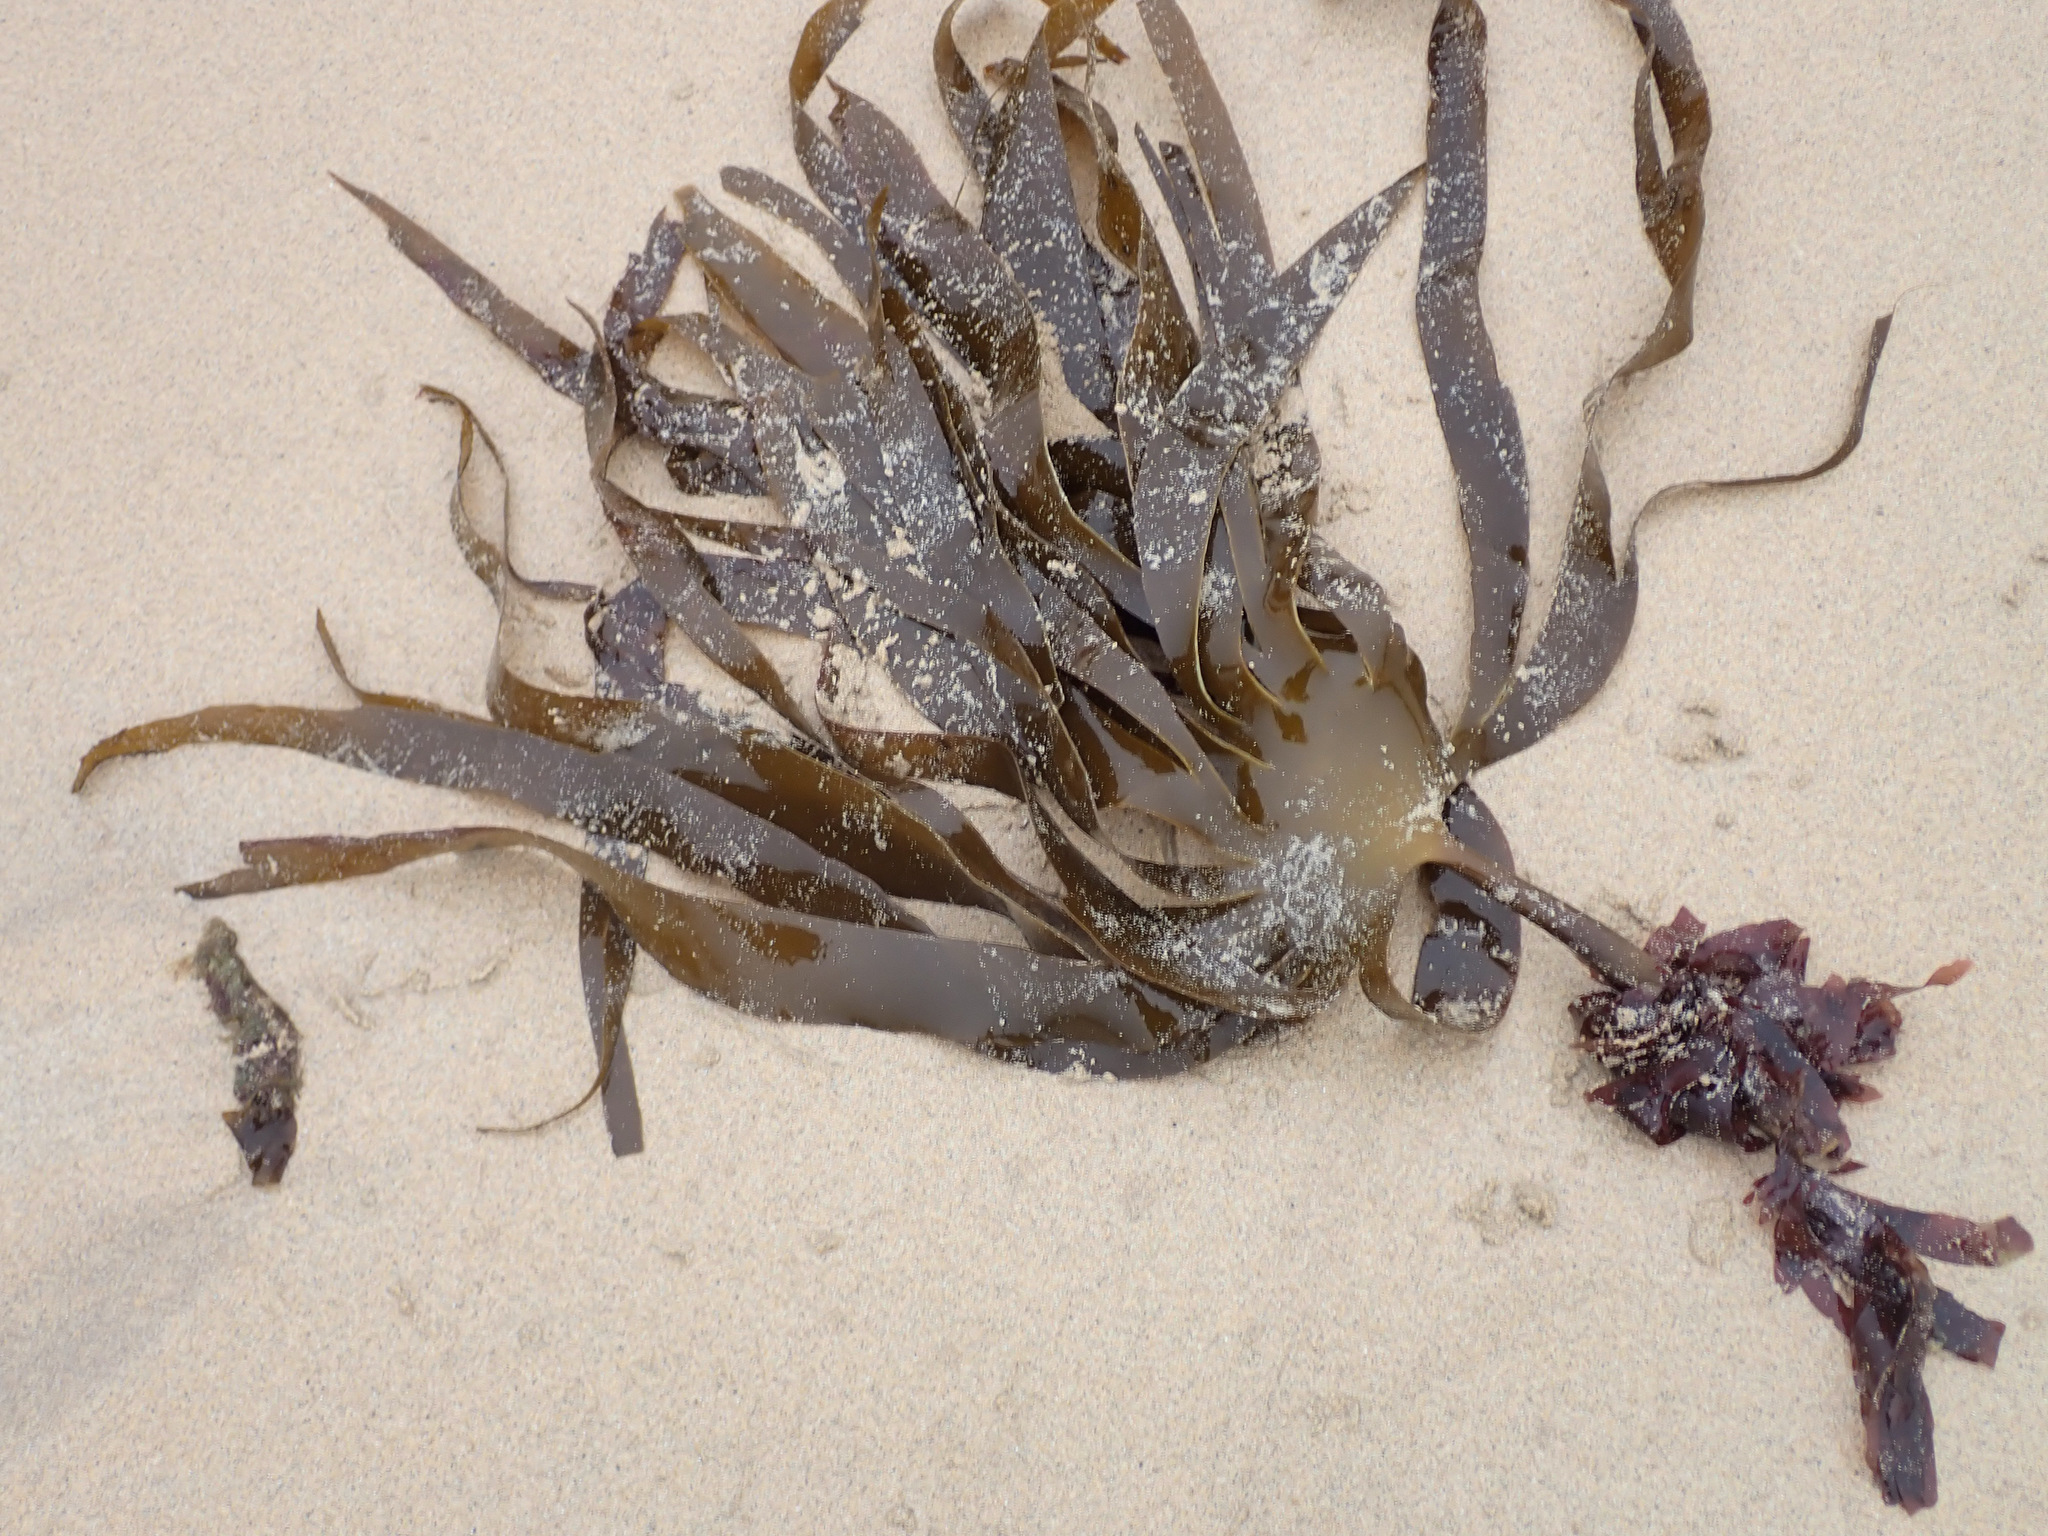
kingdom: Chromista
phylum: Ochrophyta
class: Phaeophyceae
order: Tilopteridales
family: Phyllariaceae
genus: Saccorhiza
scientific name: Saccorhiza polyschides
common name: Furbelows
